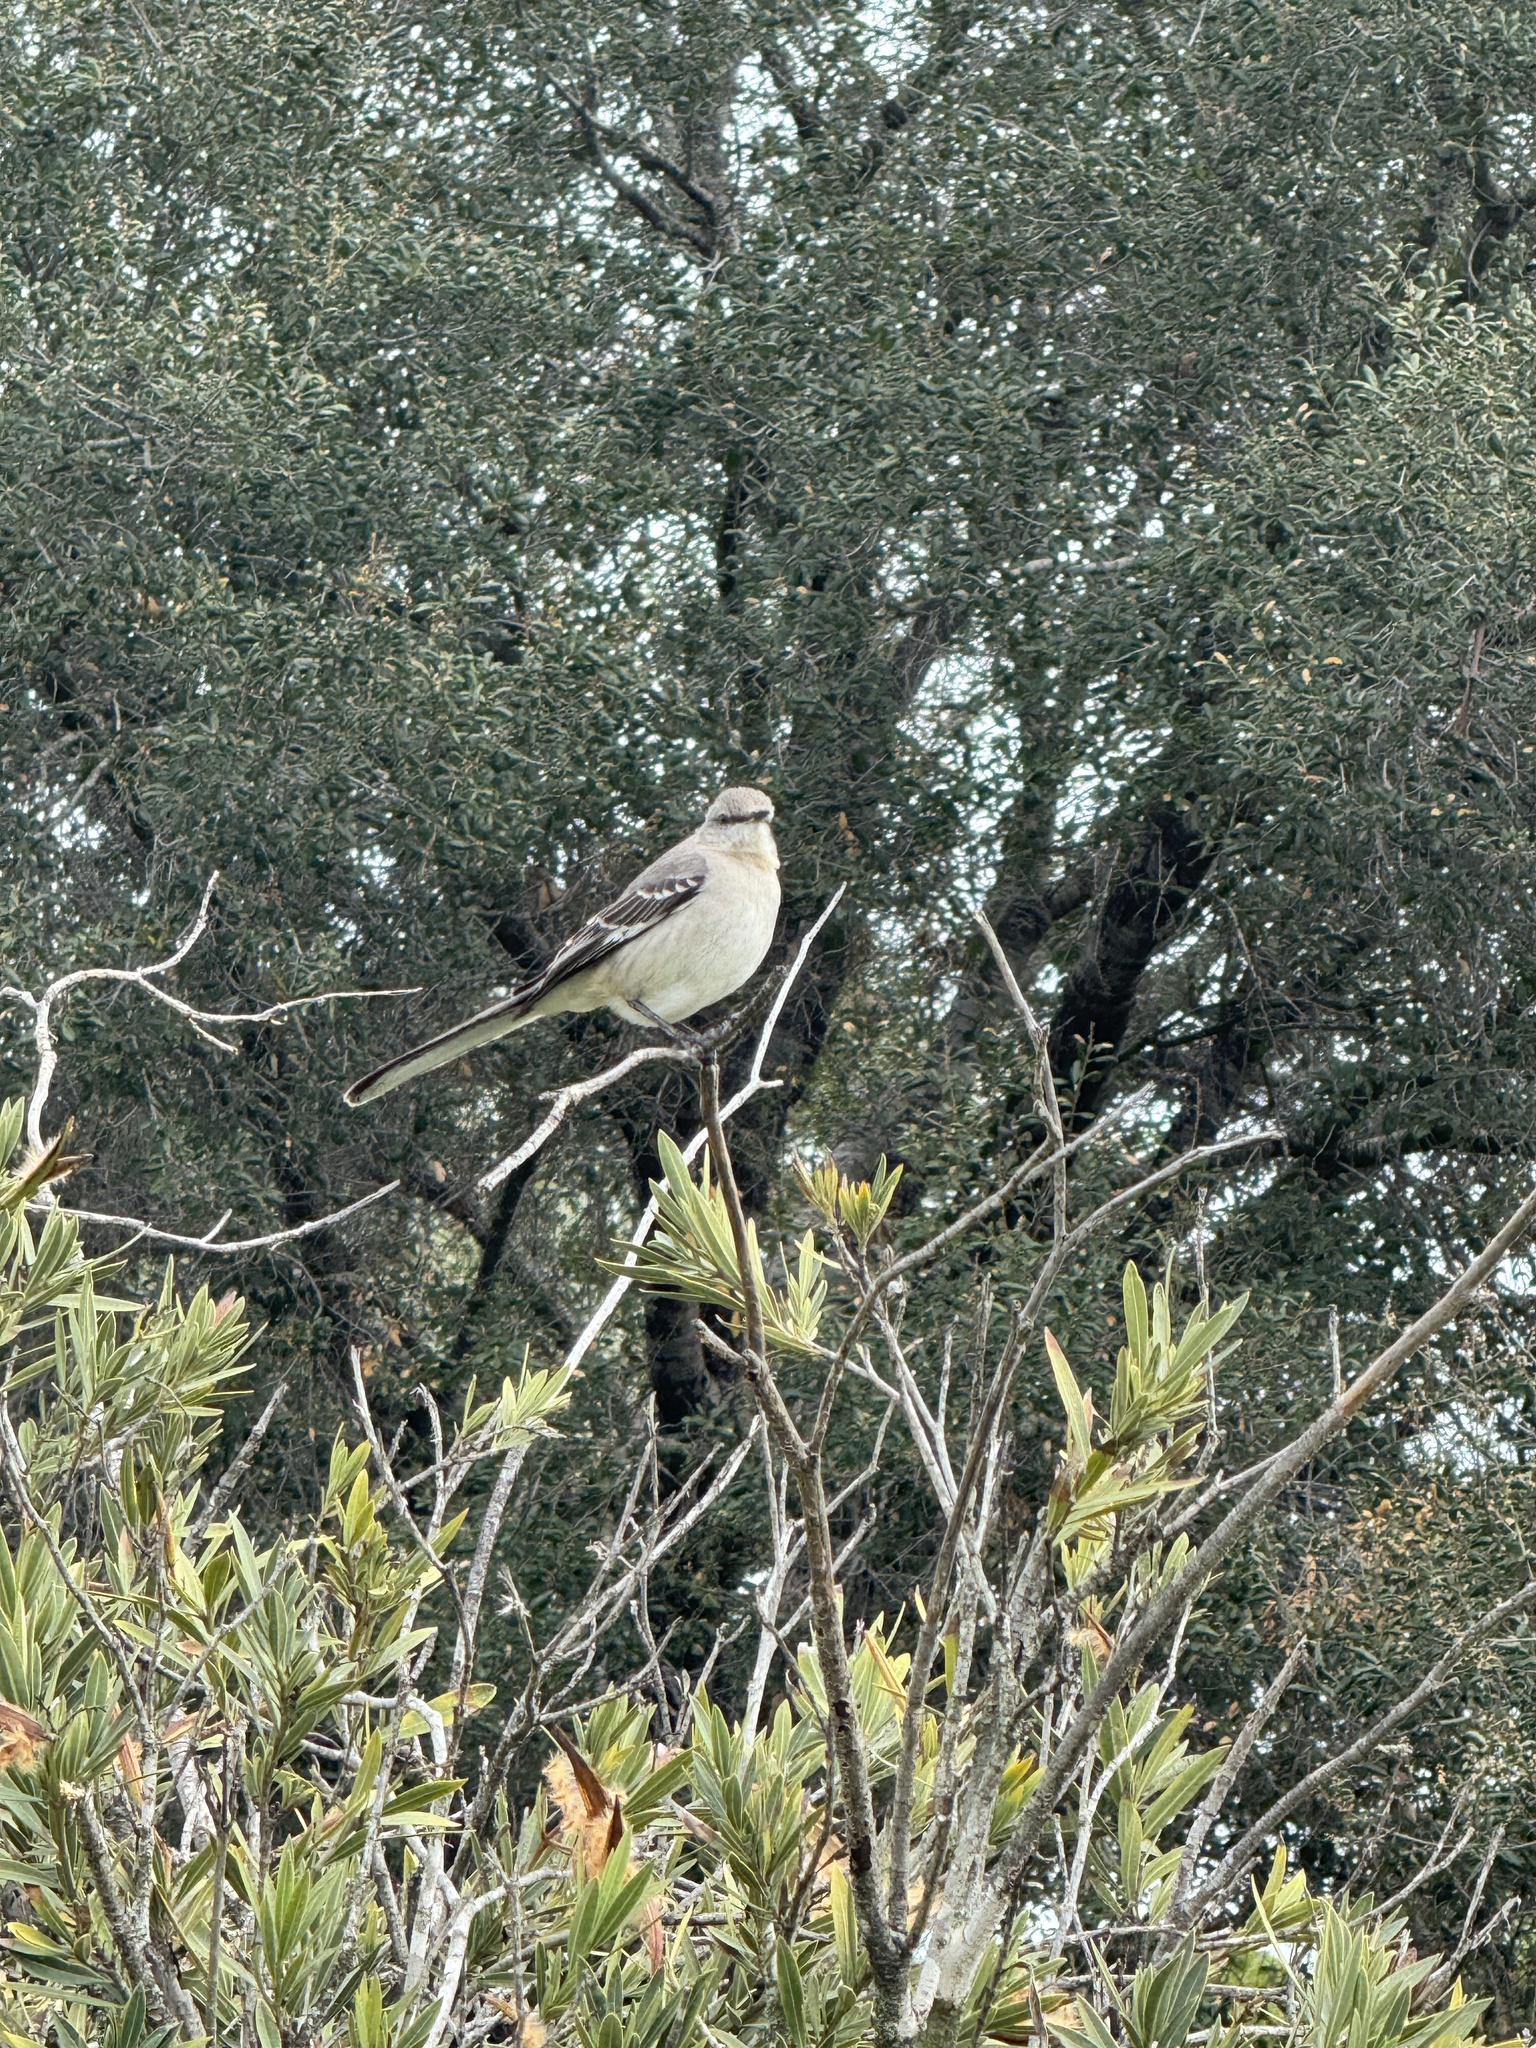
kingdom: Animalia
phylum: Chordata
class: Aves
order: Passeriformes
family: Mimidae
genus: Mimus
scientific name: Mimus polyglottos
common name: Northern mockingbird
